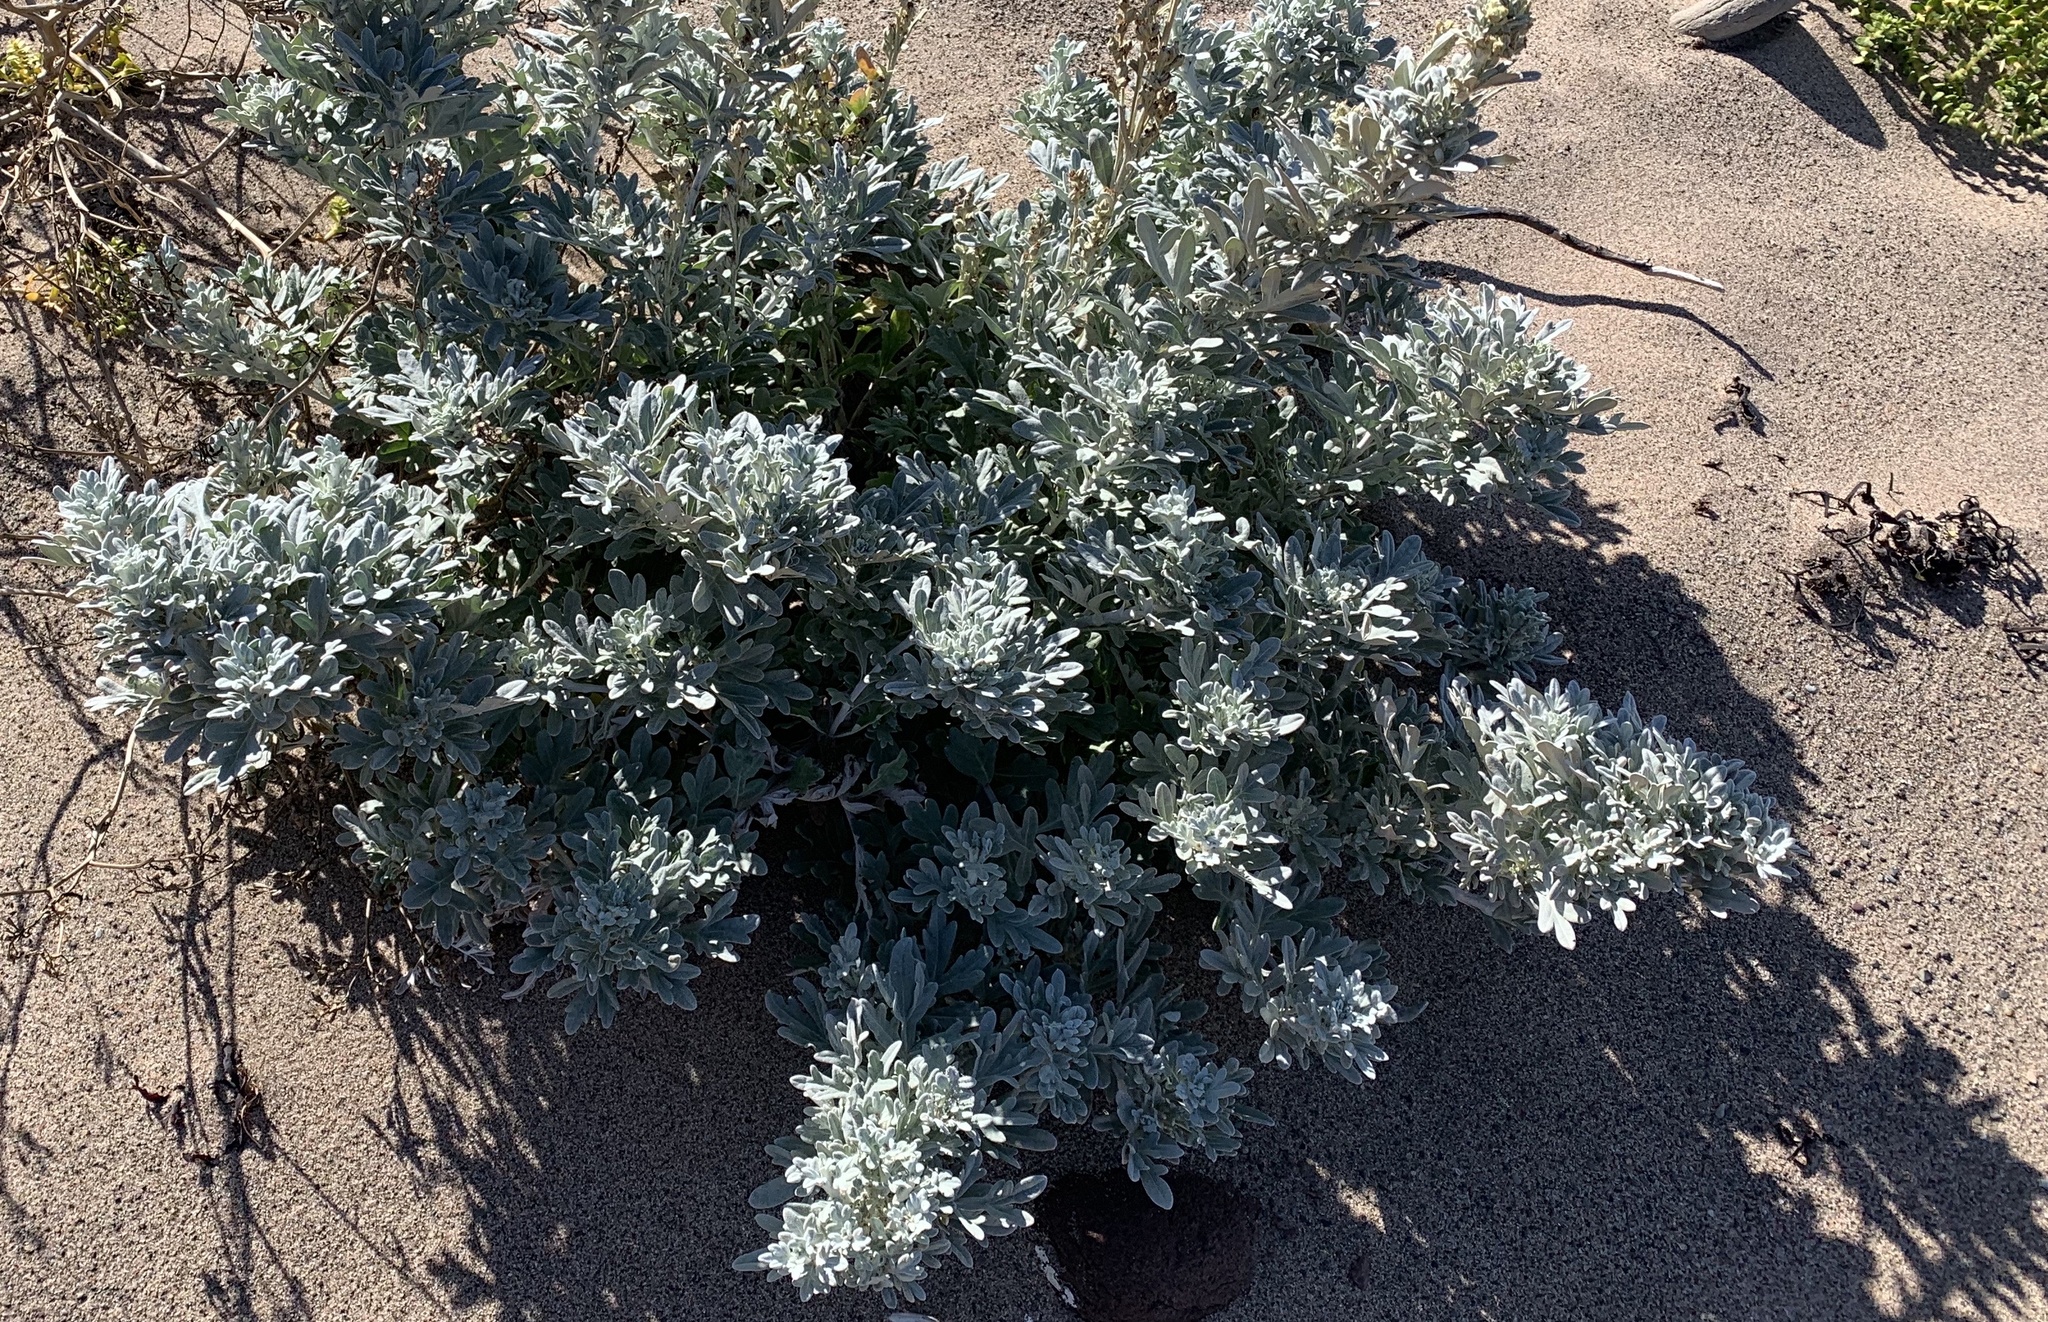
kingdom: Plantae
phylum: Tracheophyta
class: Magnoliopsida
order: Asterales
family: Asteraceae
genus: Artemisia
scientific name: Artemisia stelleriana
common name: Beach wormwood
